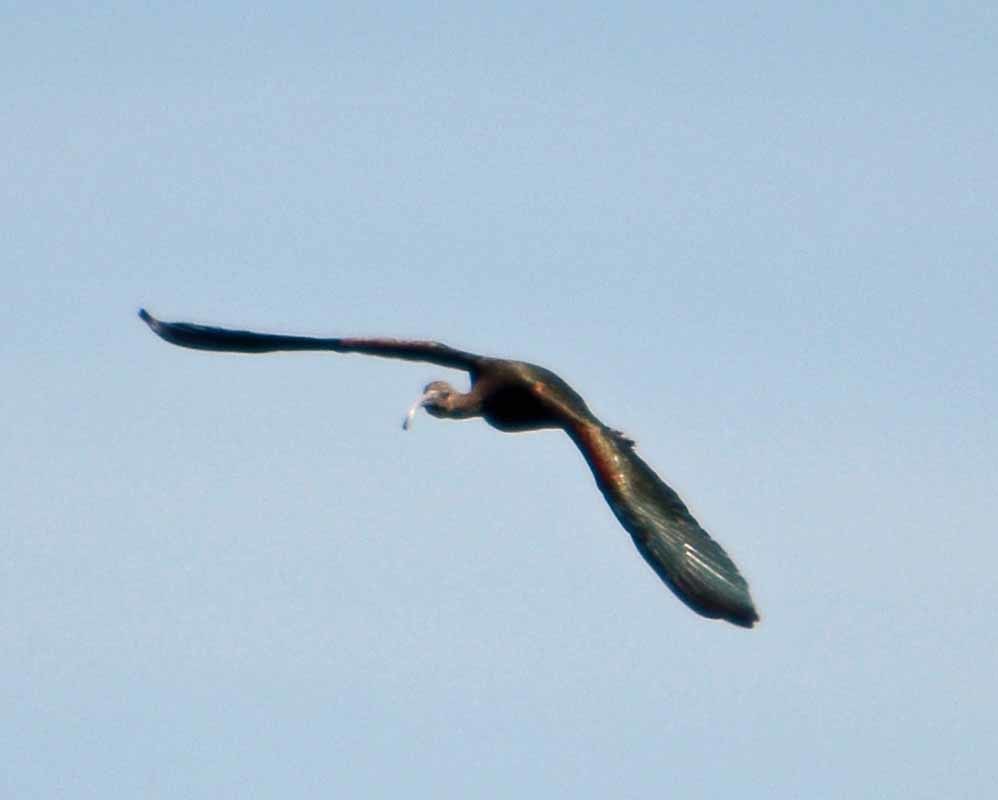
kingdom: Animalia
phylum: Chordata
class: Aves
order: Pelecaniformes
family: Threskiornithidae
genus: Plegadis
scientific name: Plegadis chihi
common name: White-faced ibis
